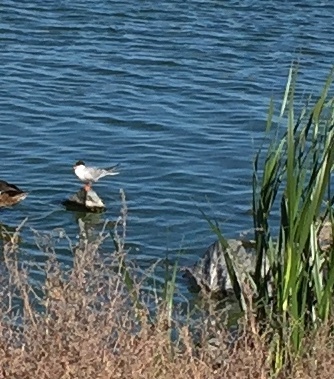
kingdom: Animalia
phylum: Chordata
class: Aves
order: Charadriiformes
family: Laridae
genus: Sterna
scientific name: Sterna forsteri
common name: Forster's tern
